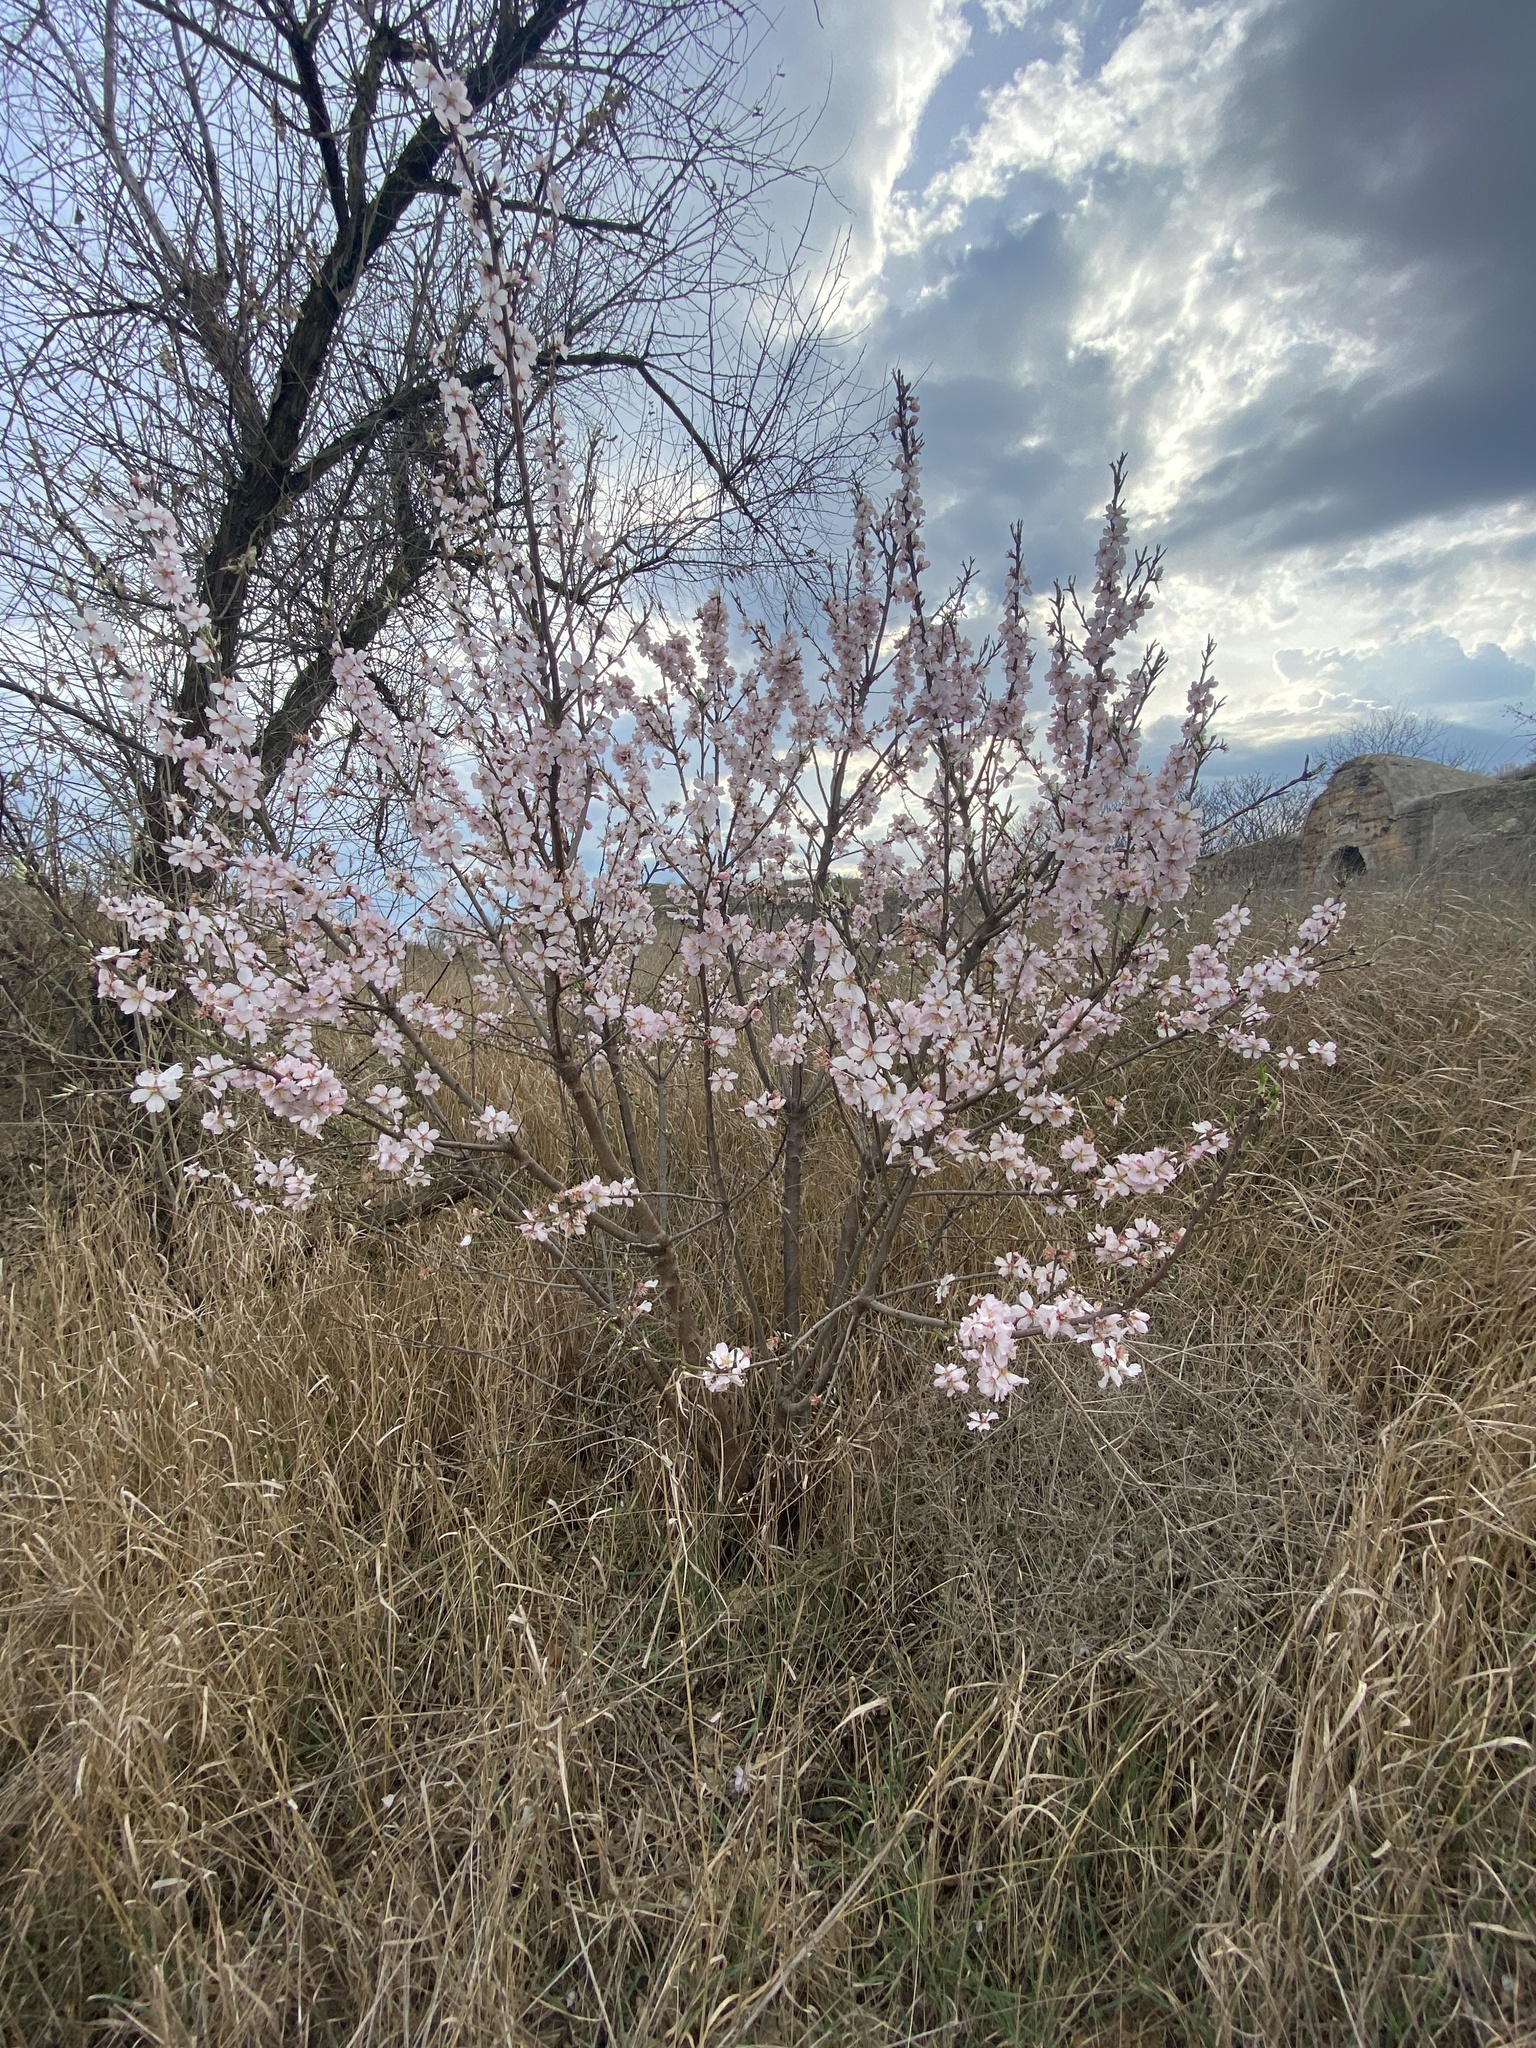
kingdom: Plantae
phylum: Tracheophyta
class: Magnoliopsida
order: Rosales
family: Rosaceae
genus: Prunus
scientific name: Prunus amygdalus
